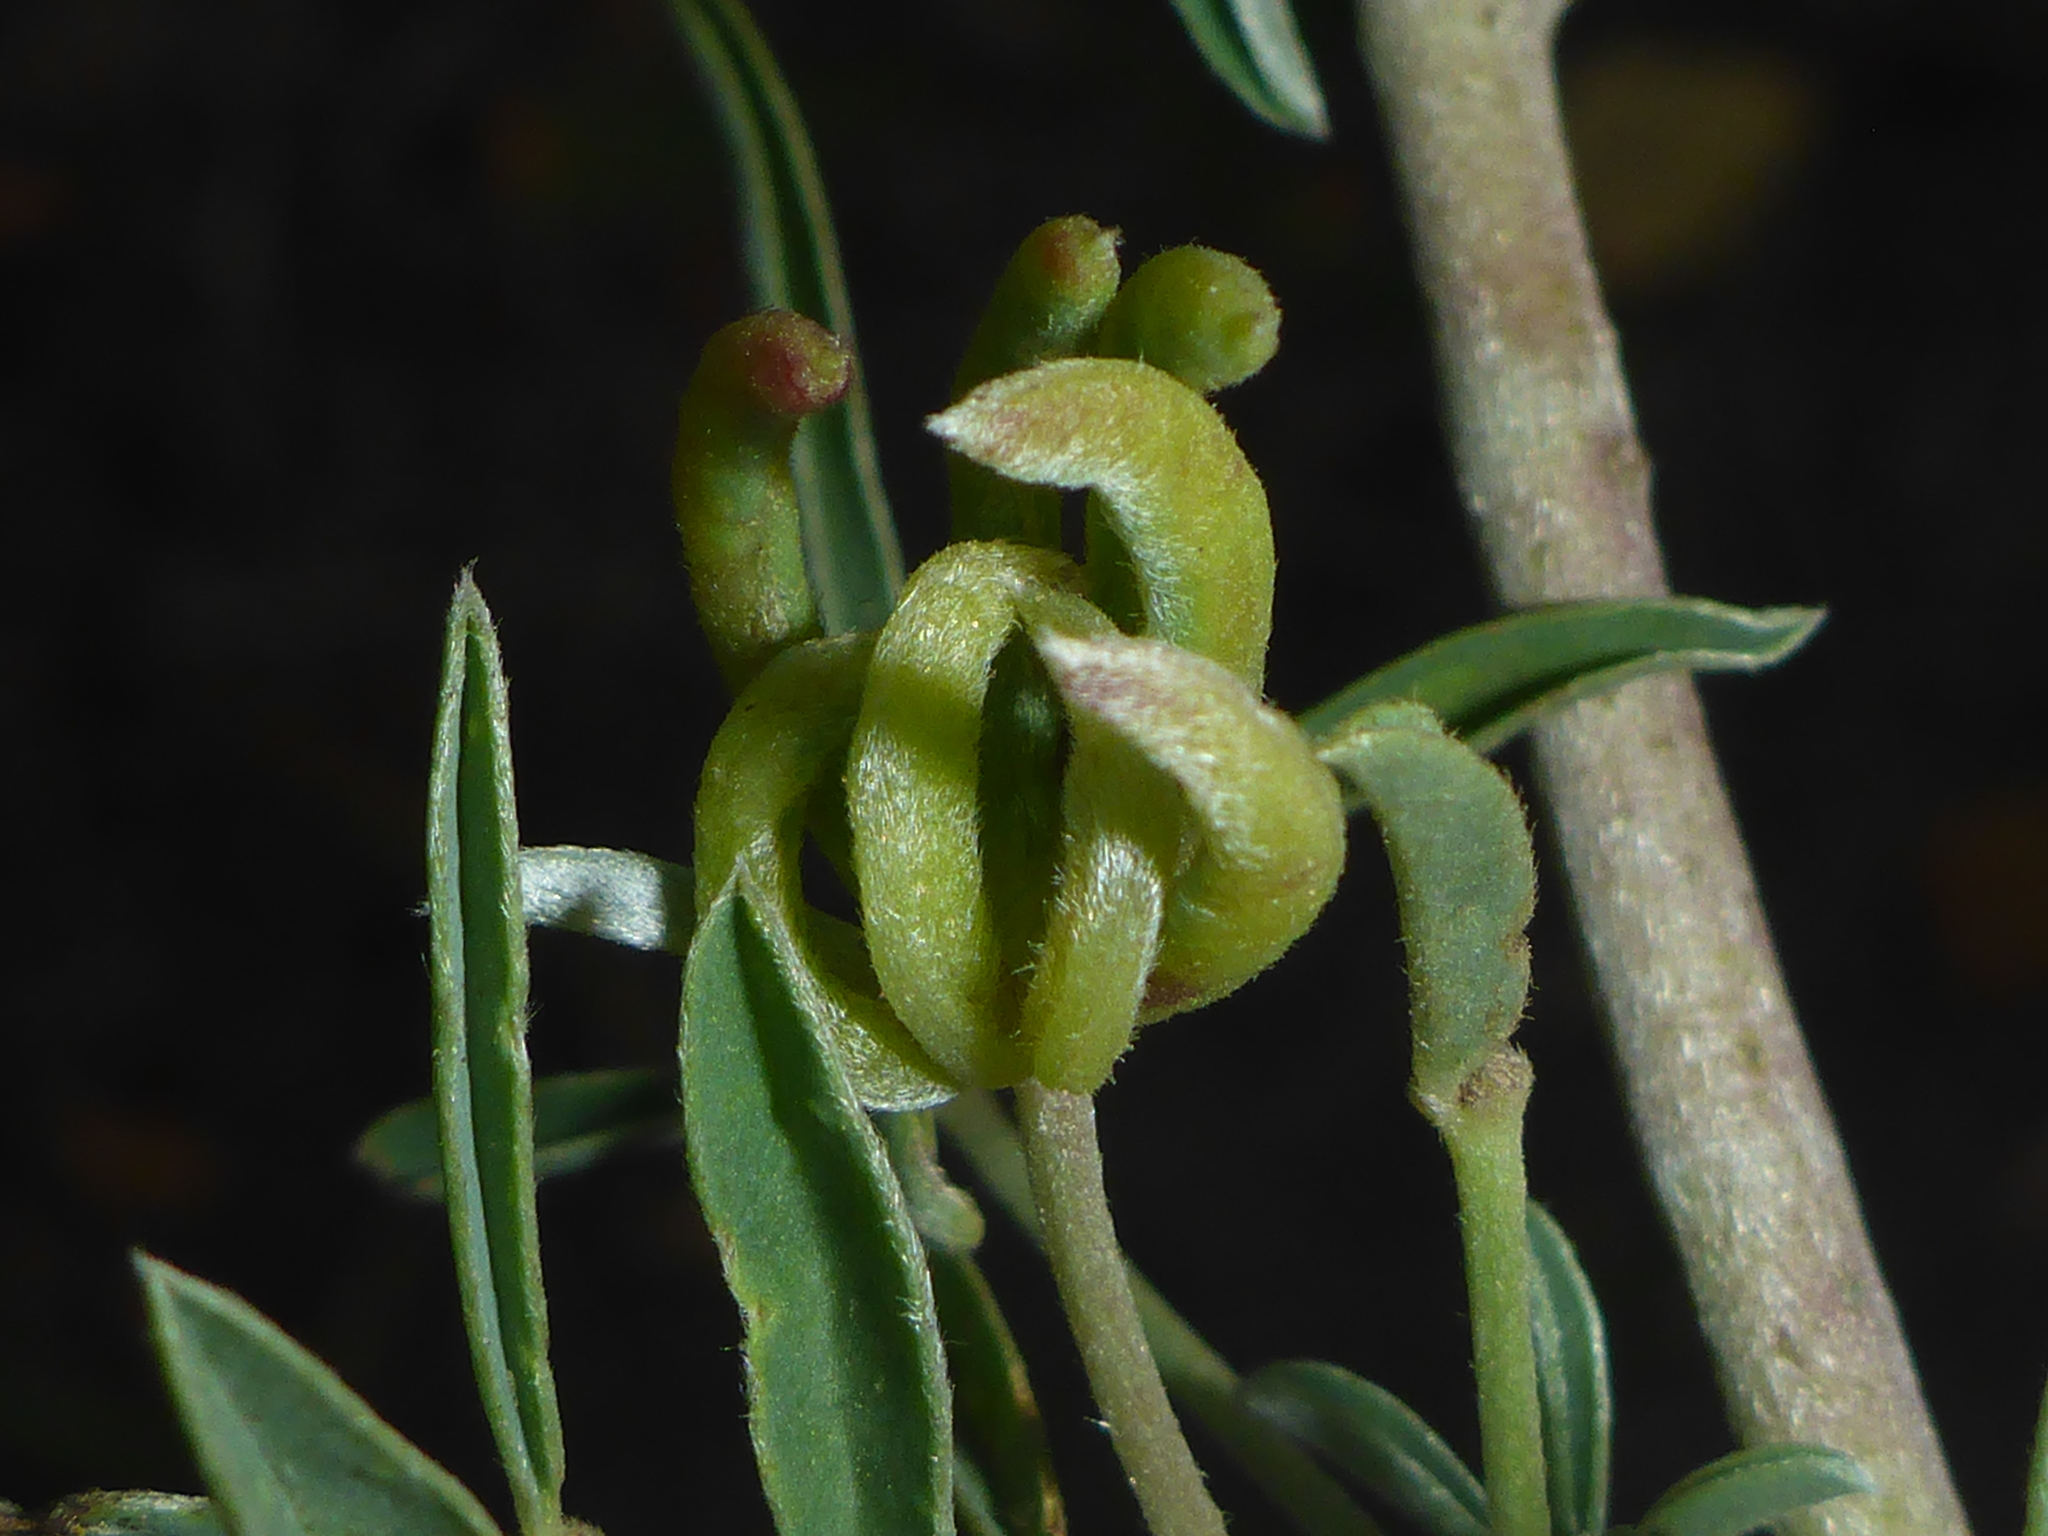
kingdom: Animalia
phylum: Arthropoda
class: Insecta
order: Diptera
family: Cecidomyiidae
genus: Dasineura
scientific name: Dasineura lupinorum
